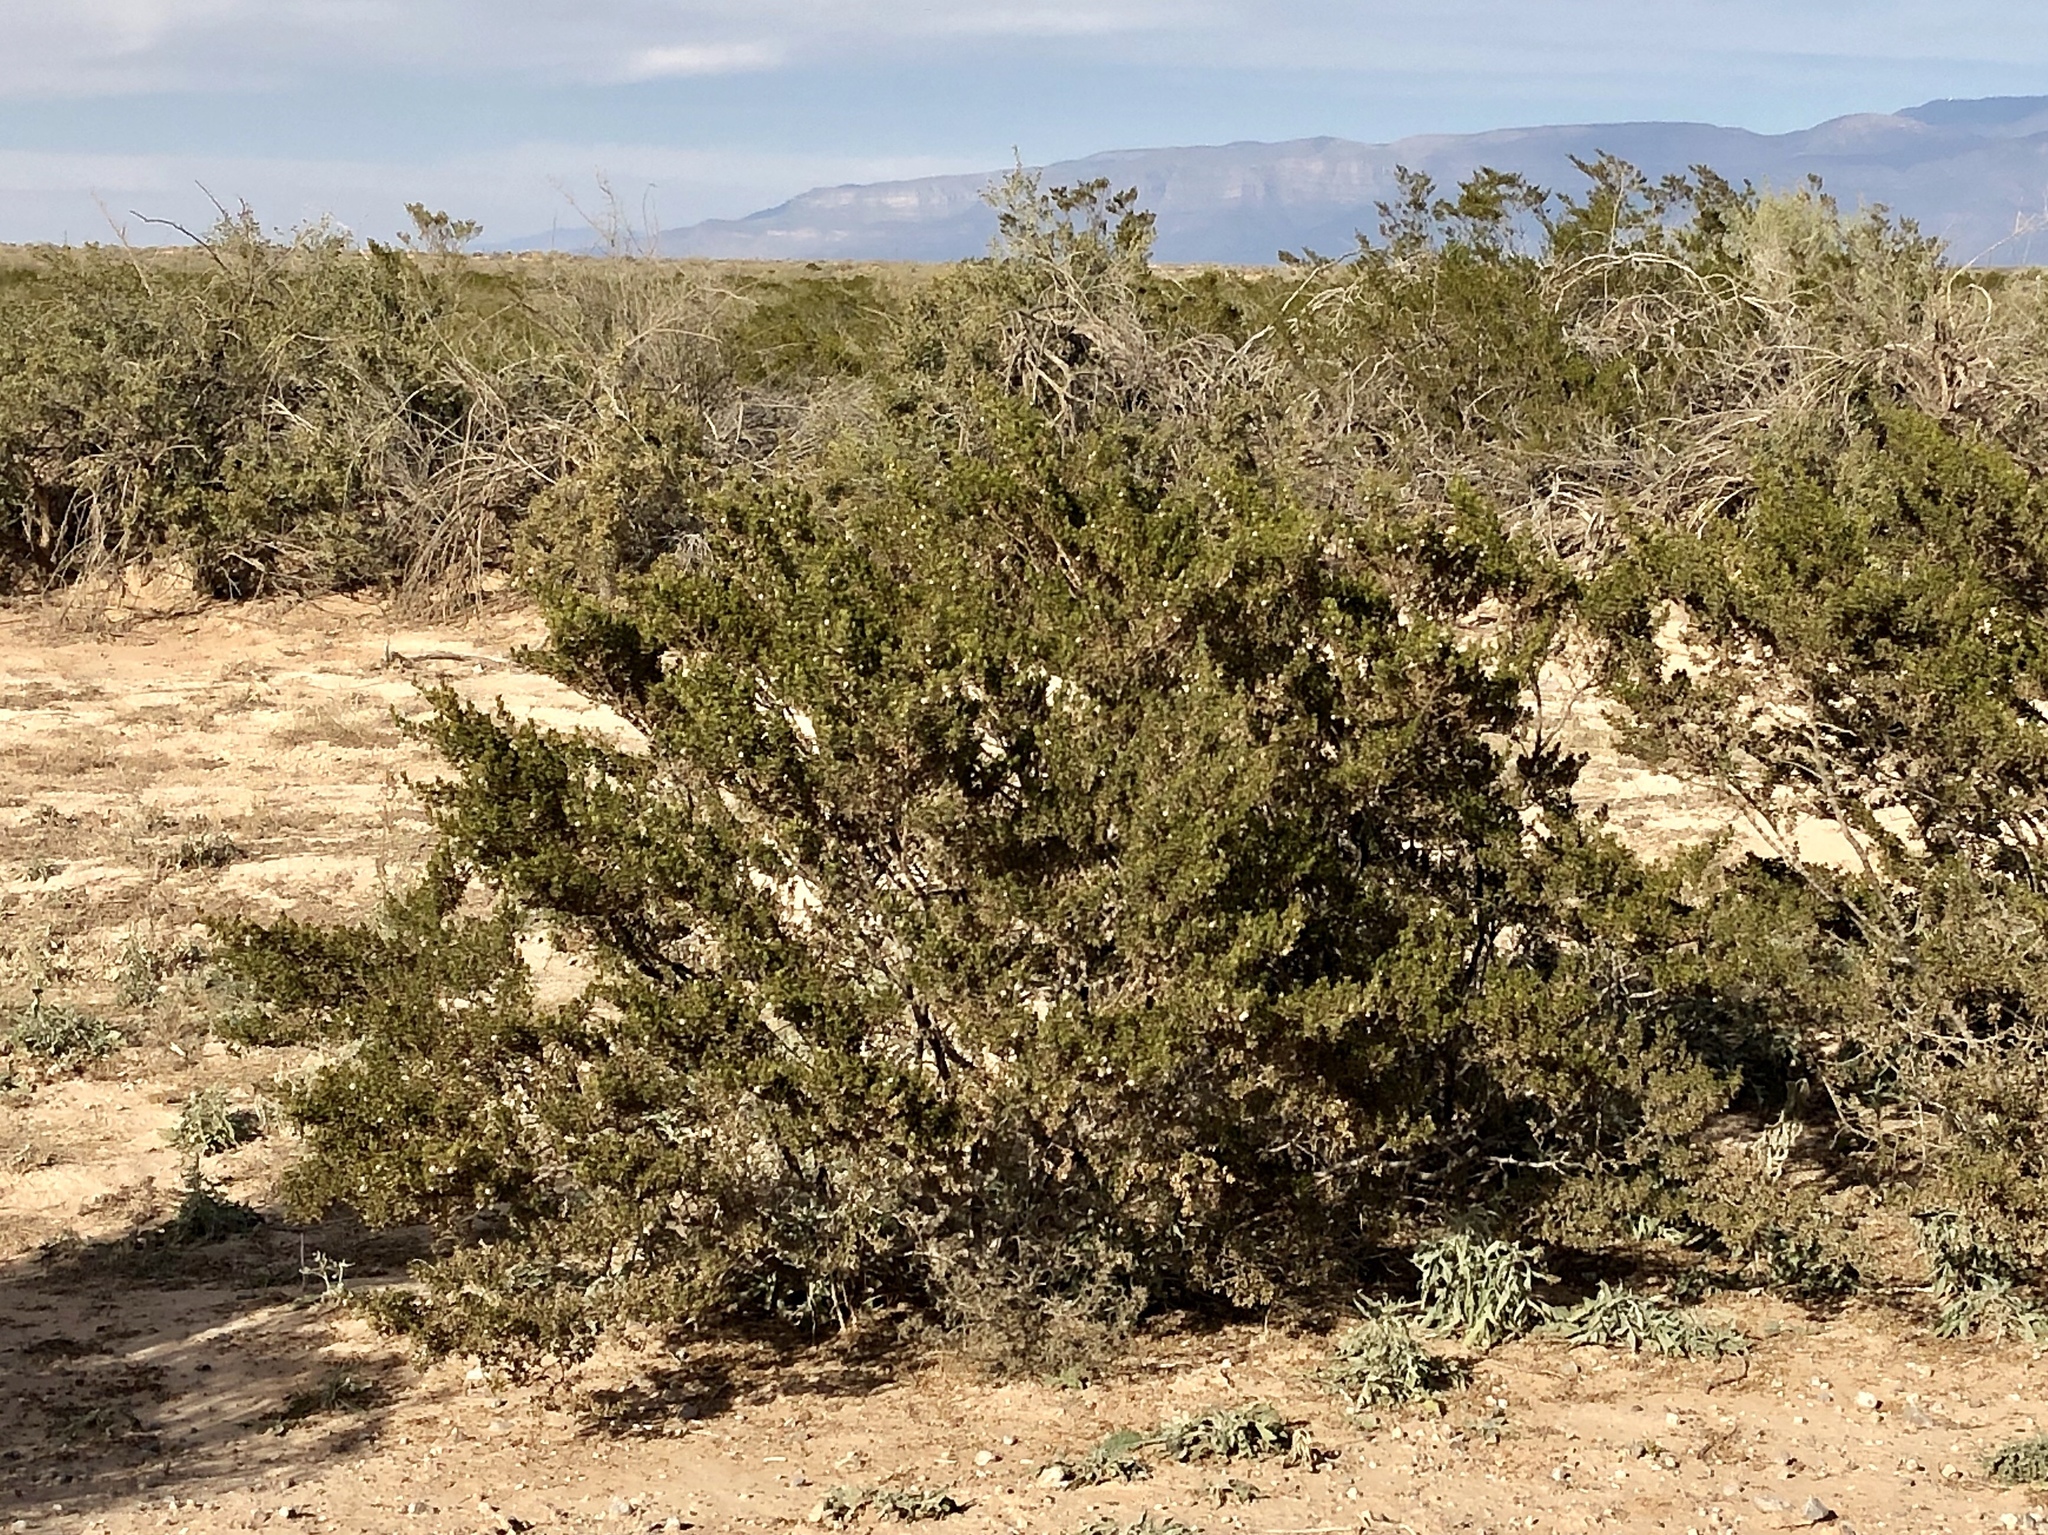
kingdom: Plantae
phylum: Tracheophyta
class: Magnoliopsida
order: Zygophyllales
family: Zygophyllaceae
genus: Larrea
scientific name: Larrea tridentata
